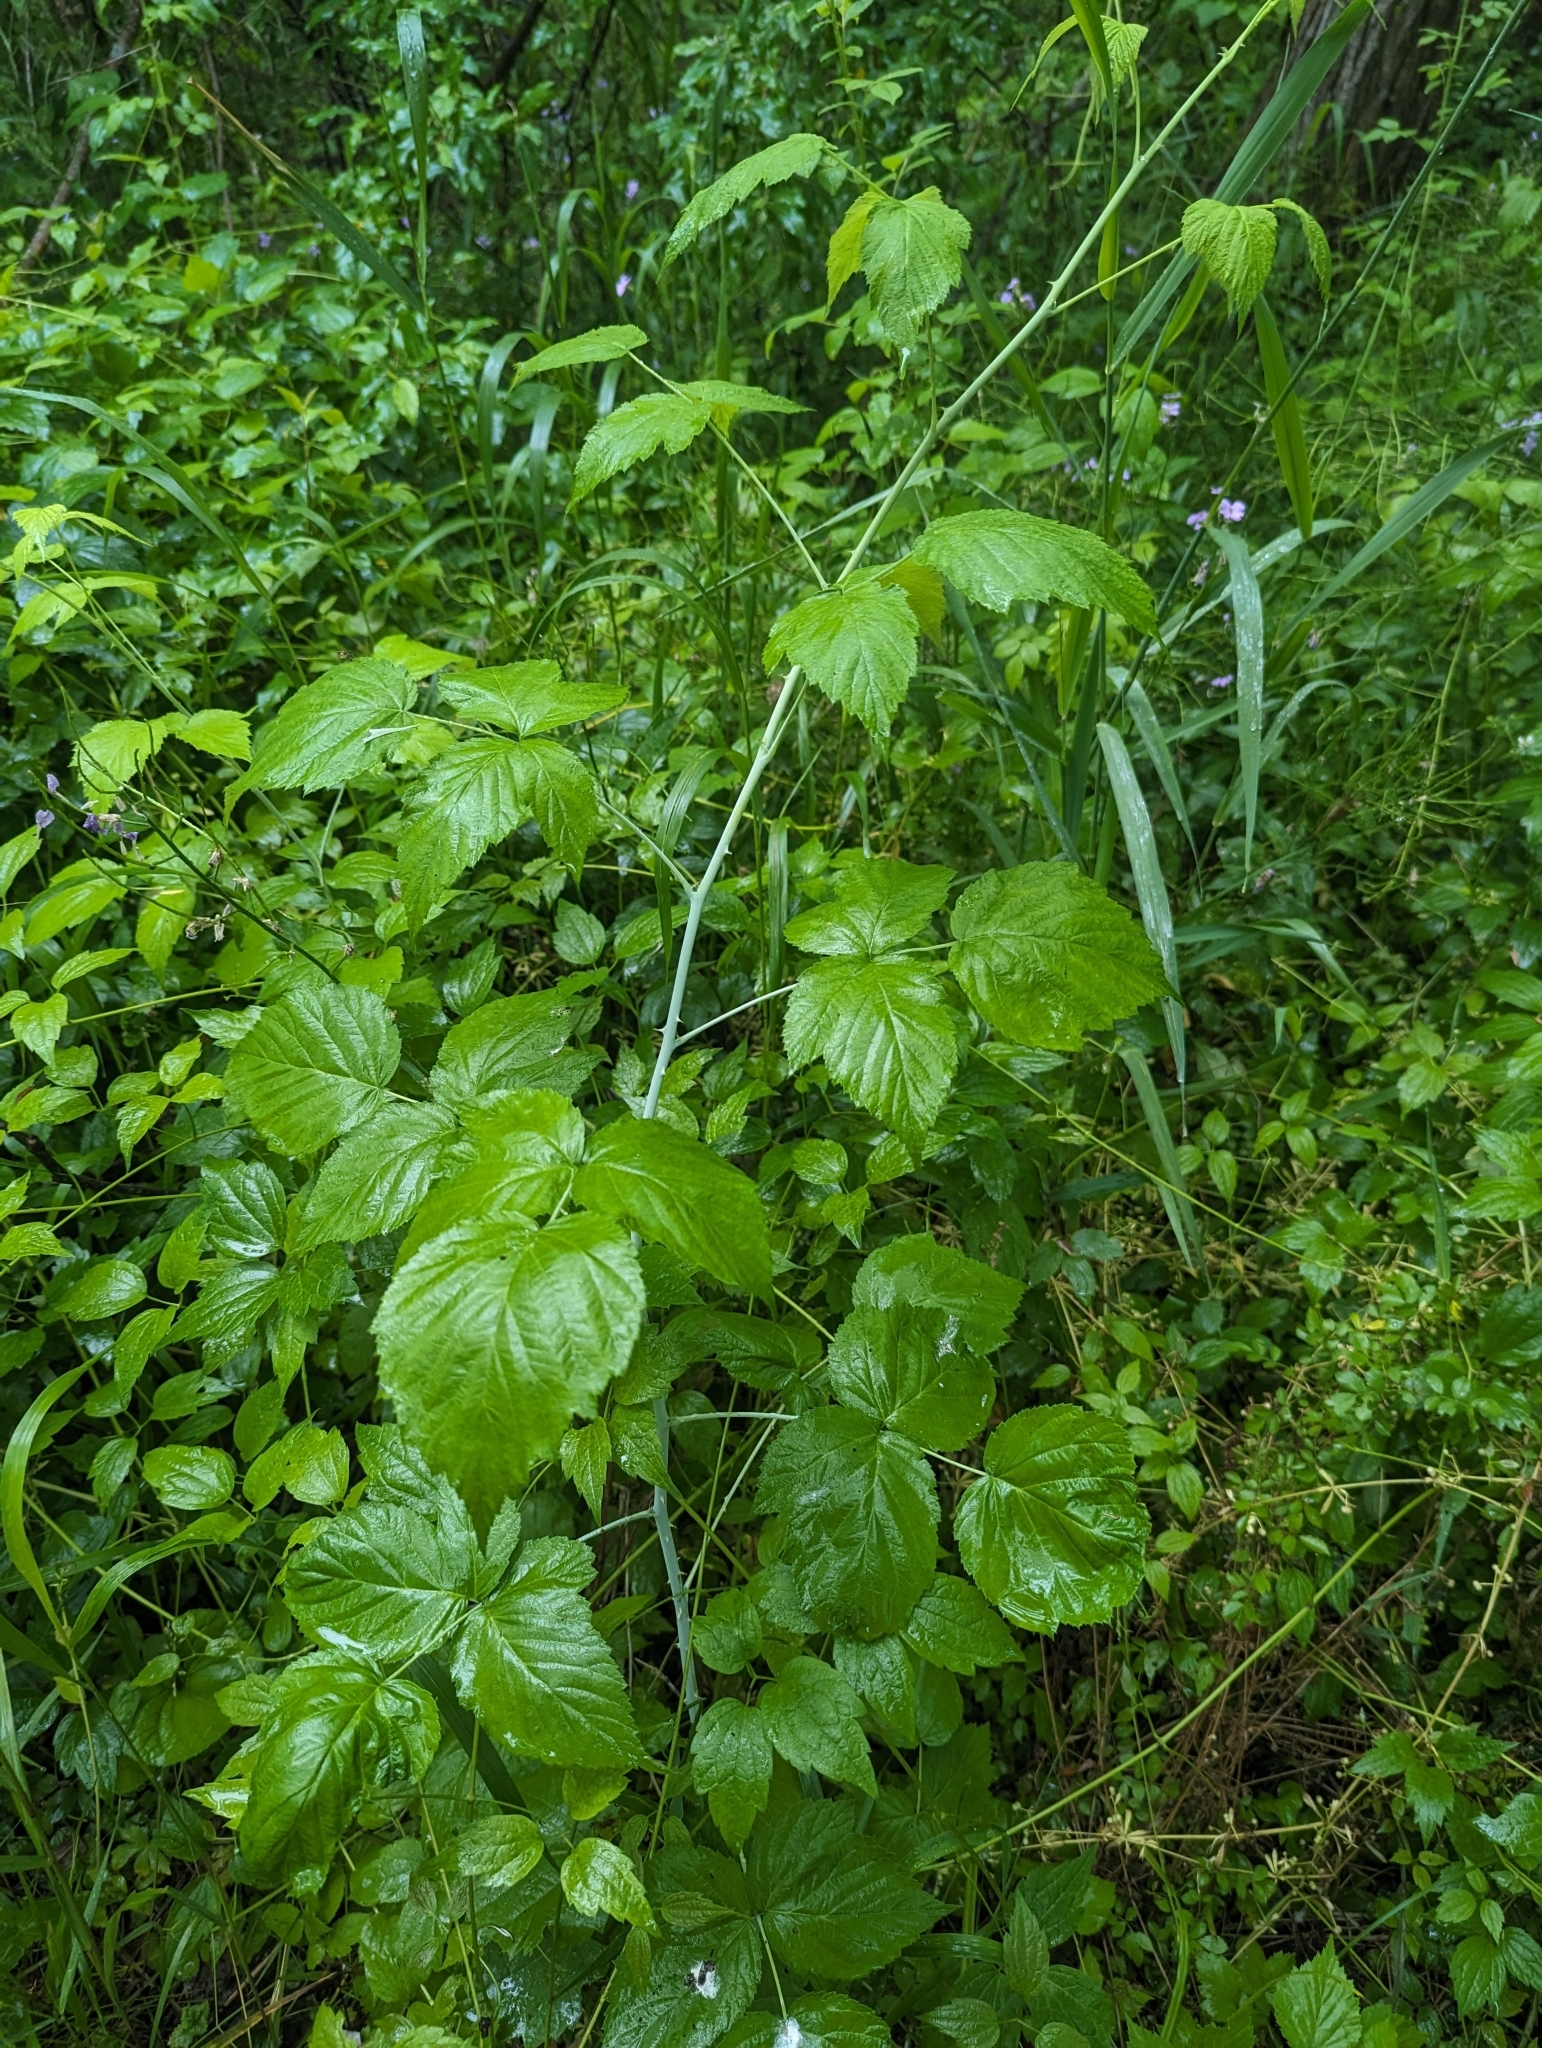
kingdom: Plantae
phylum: Tracheophyta
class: Magnoliopsida
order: Rosales
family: Rosaceae
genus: Rubus
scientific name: Rubus occidentalis
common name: Black raspberry
